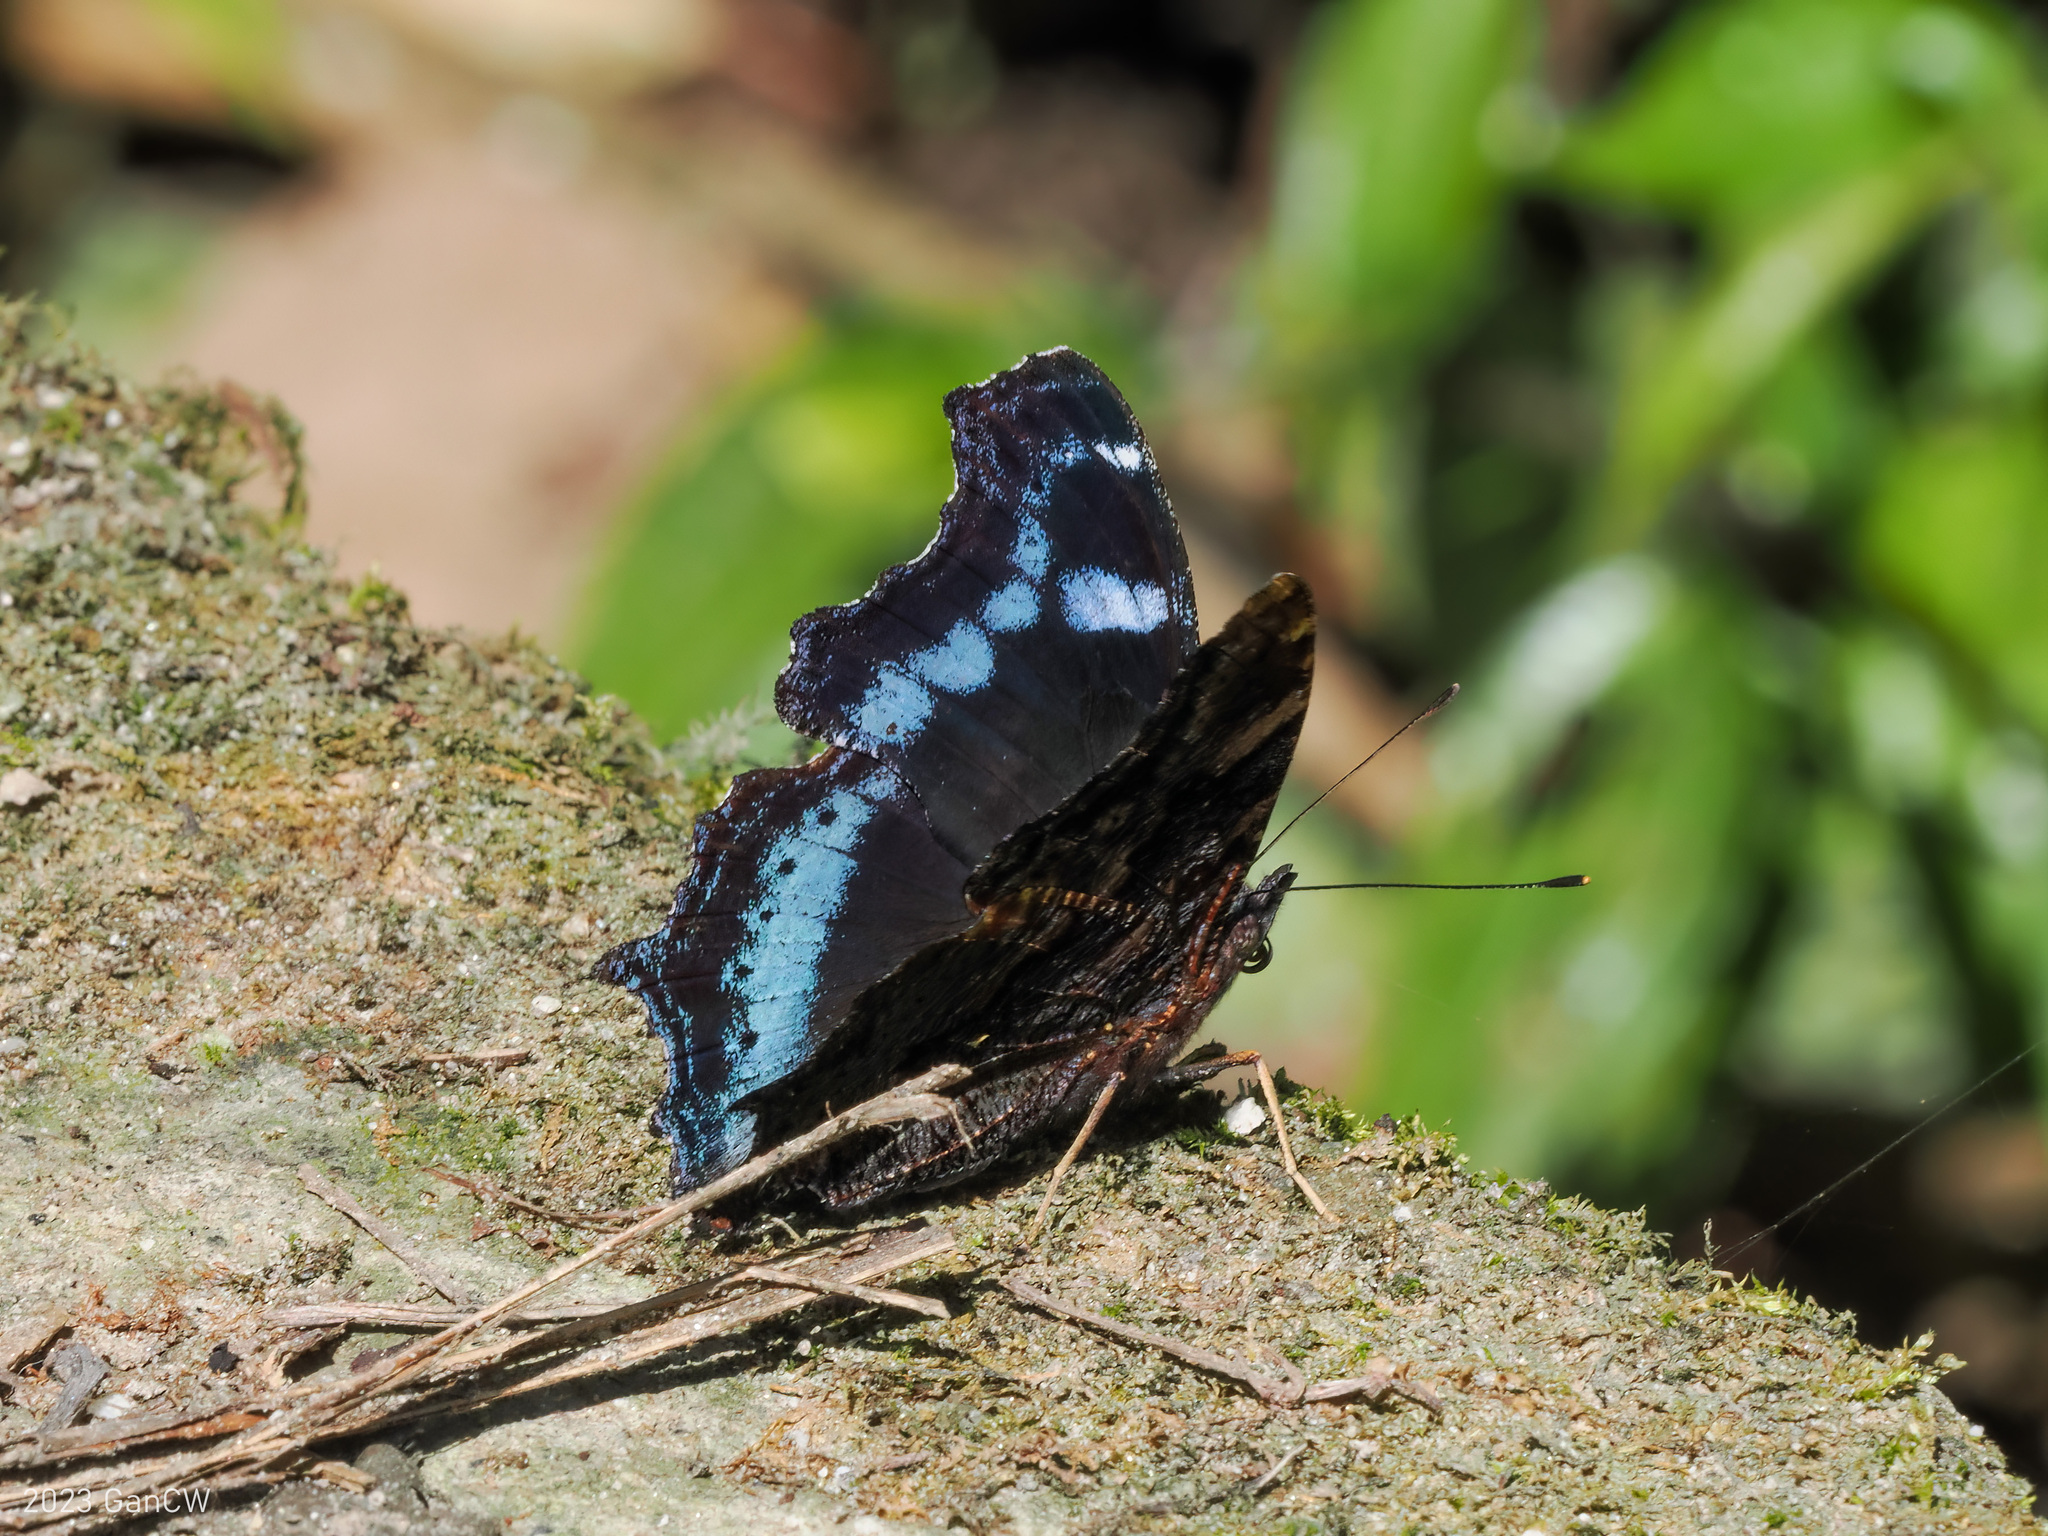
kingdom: Animalia
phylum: Arthropoda
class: Insecta
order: Lepidoptera
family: Nymphalidae
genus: Vanessa
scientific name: Vanessa Kaniska canace
